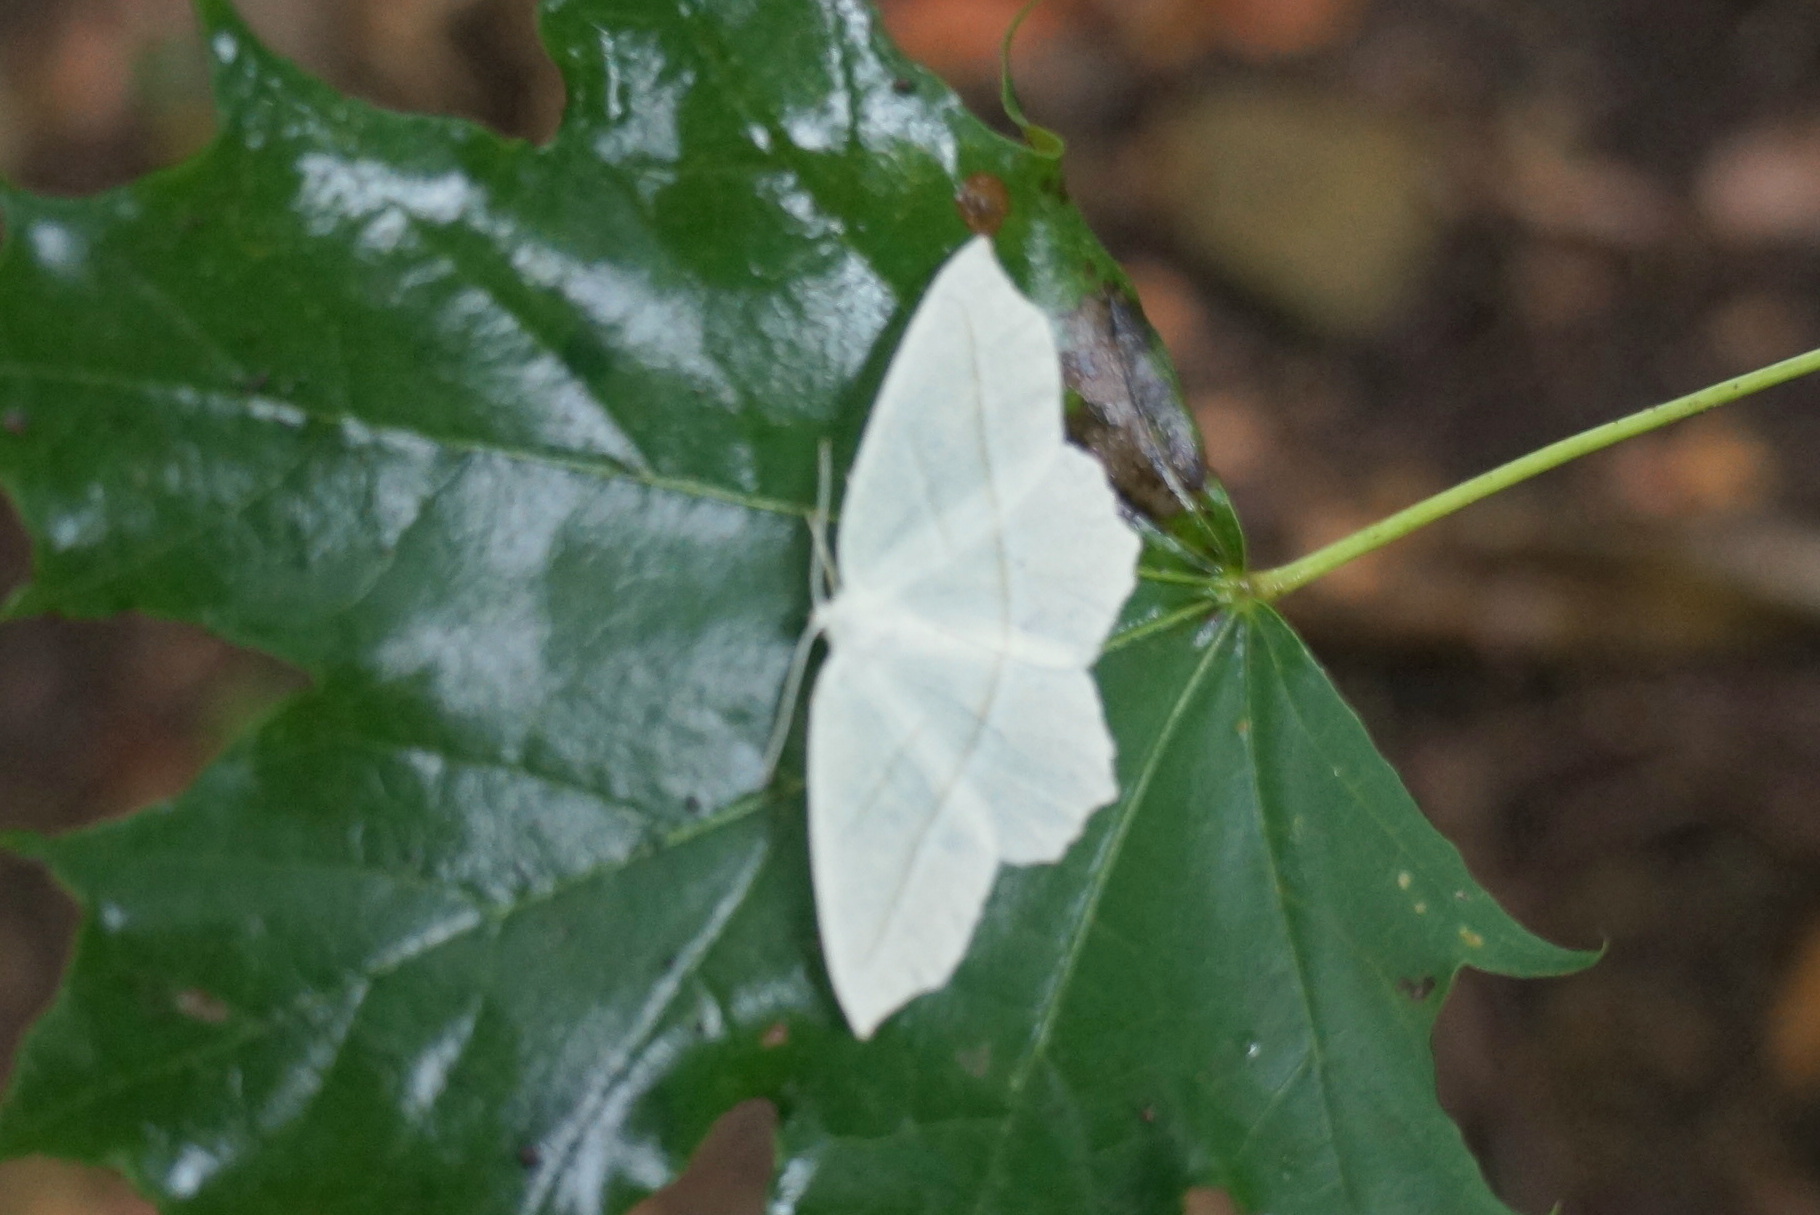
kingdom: Animalia
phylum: Arthropoda
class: Insecta
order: Lepidoptera
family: Geometridae
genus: Campaea
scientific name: Campaea perlata
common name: Fringed looper
